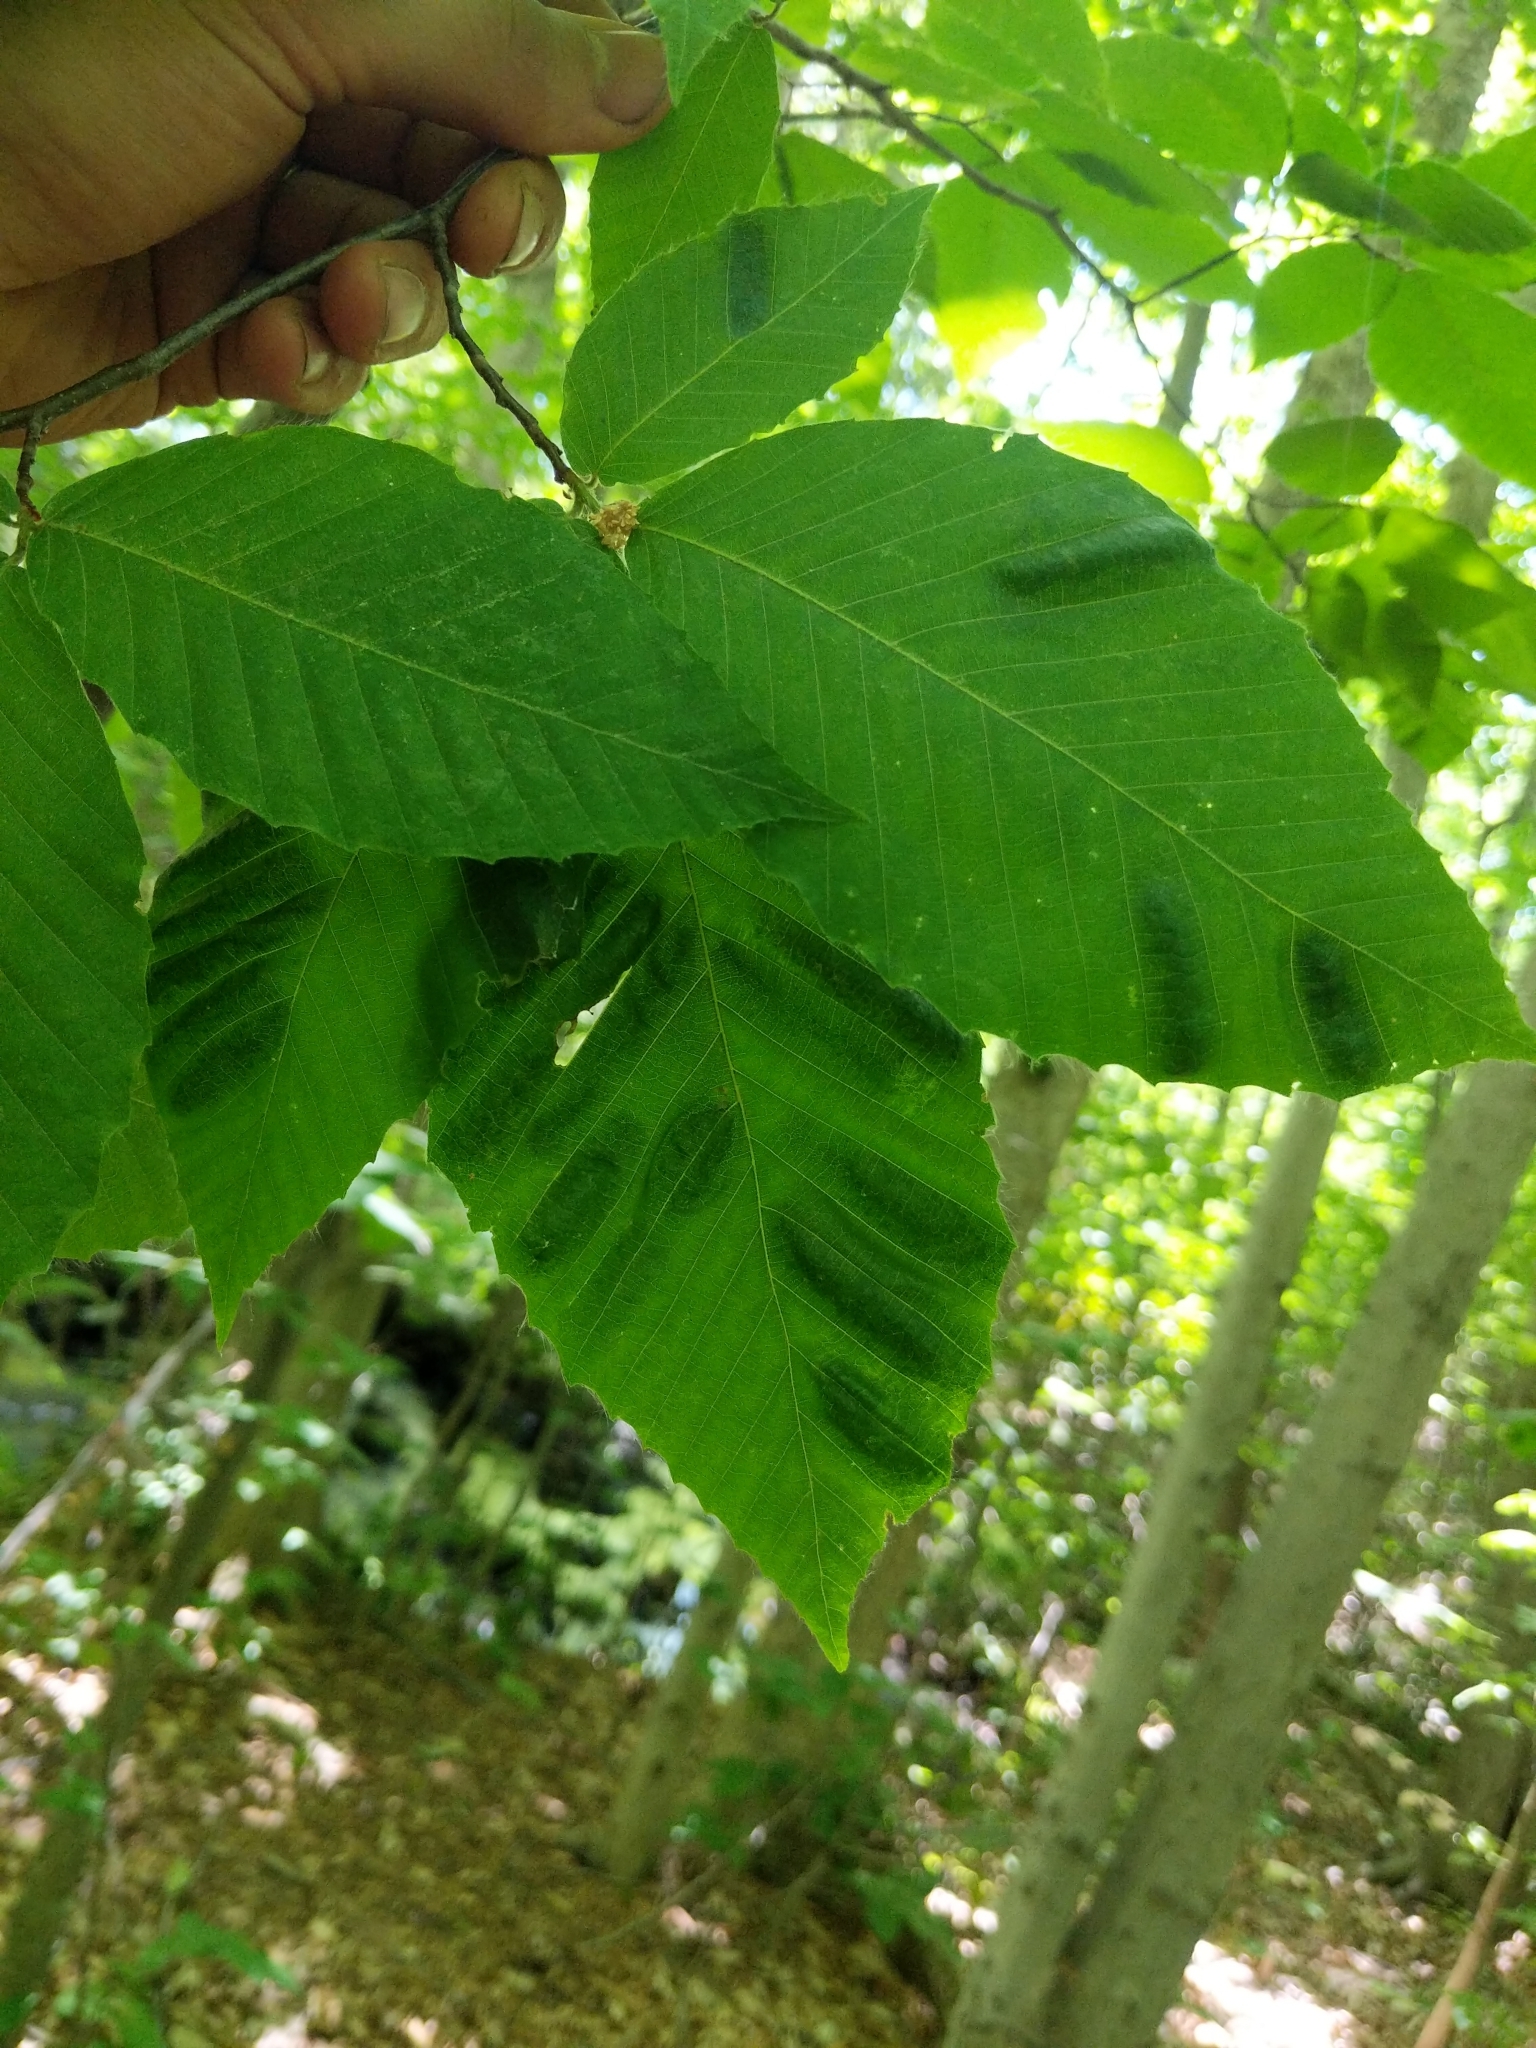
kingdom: Animalia
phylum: Nematoda
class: Chromadorea
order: Rhabditida
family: Anguinidae
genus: Litylenchus
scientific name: Litylenchus crenatae
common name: Beech leaf disease
